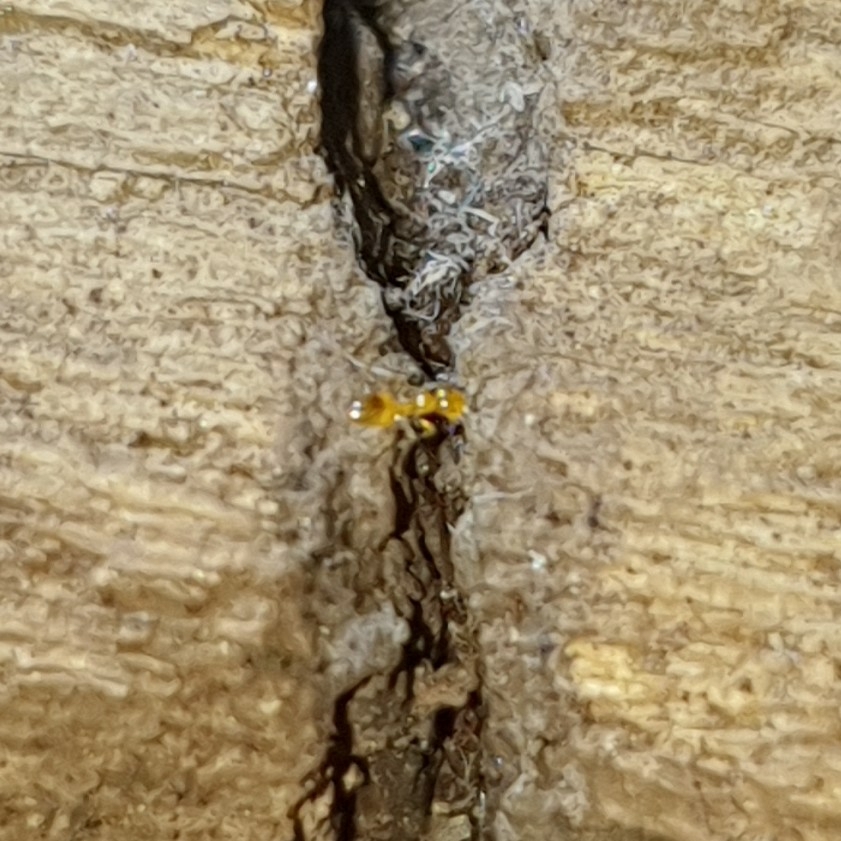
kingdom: Animalia
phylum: Arthropoda
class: Insecta
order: Hymenoptera
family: Formicidae
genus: Plagiolepis
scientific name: Plagiolepis alluaudi
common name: Little yellow ant
